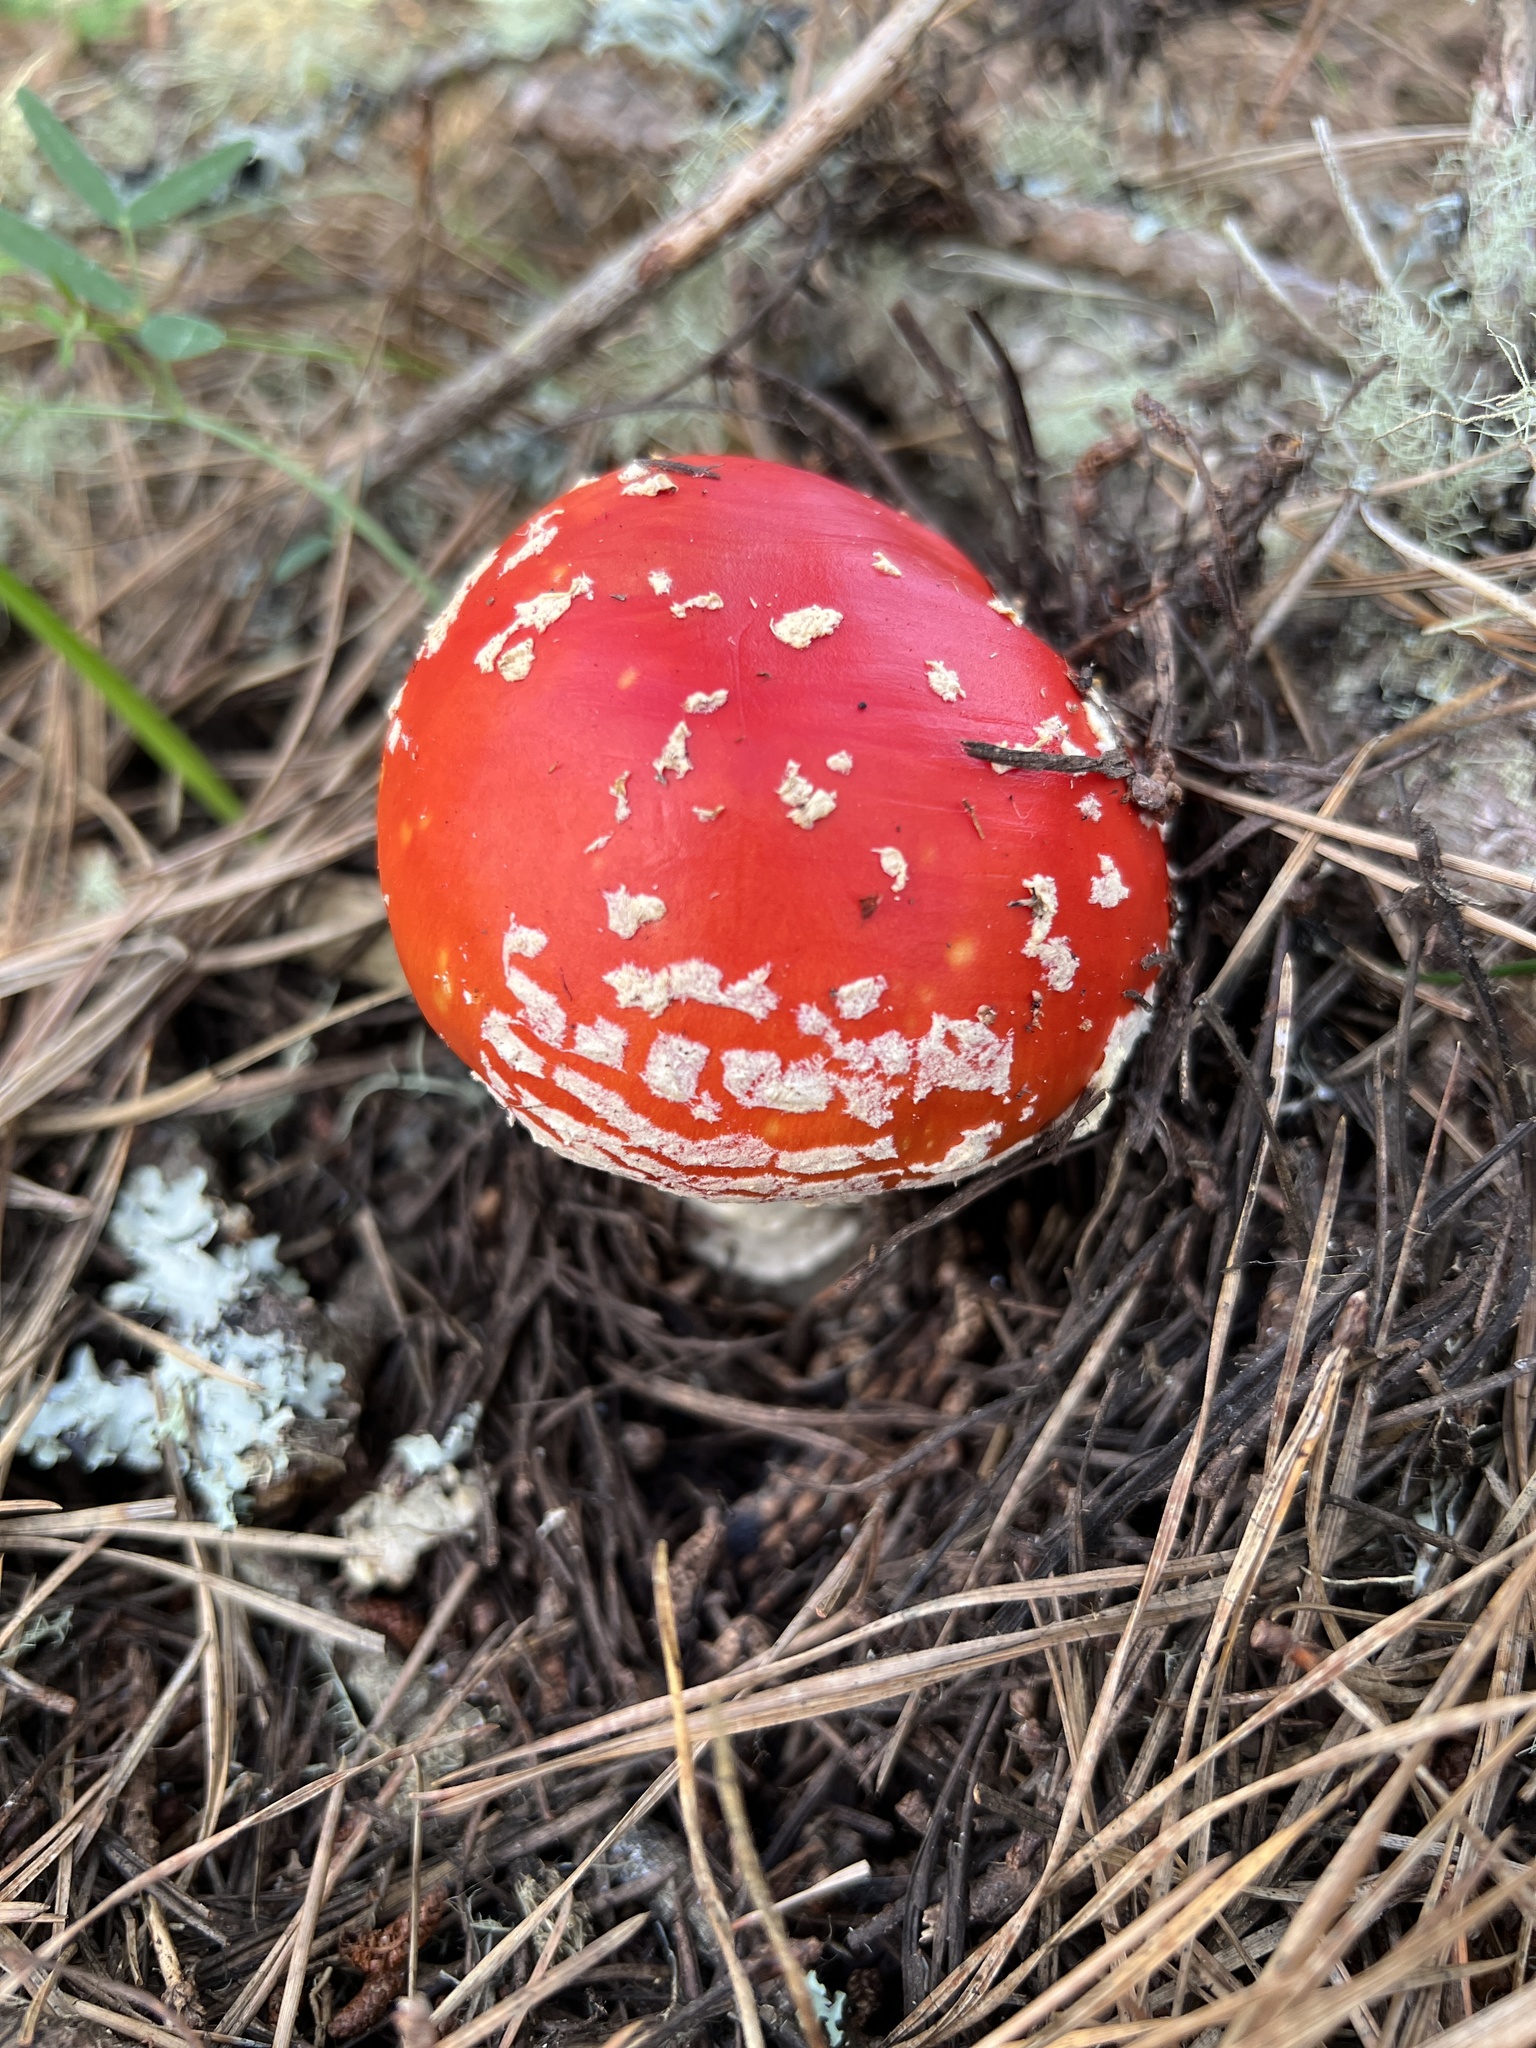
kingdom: Fungi
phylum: Basidiomycota
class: Agaricomycetes
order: Agaricales
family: Amanitaceae
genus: Amanita
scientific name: Amanita muscaria
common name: Fly agaric
